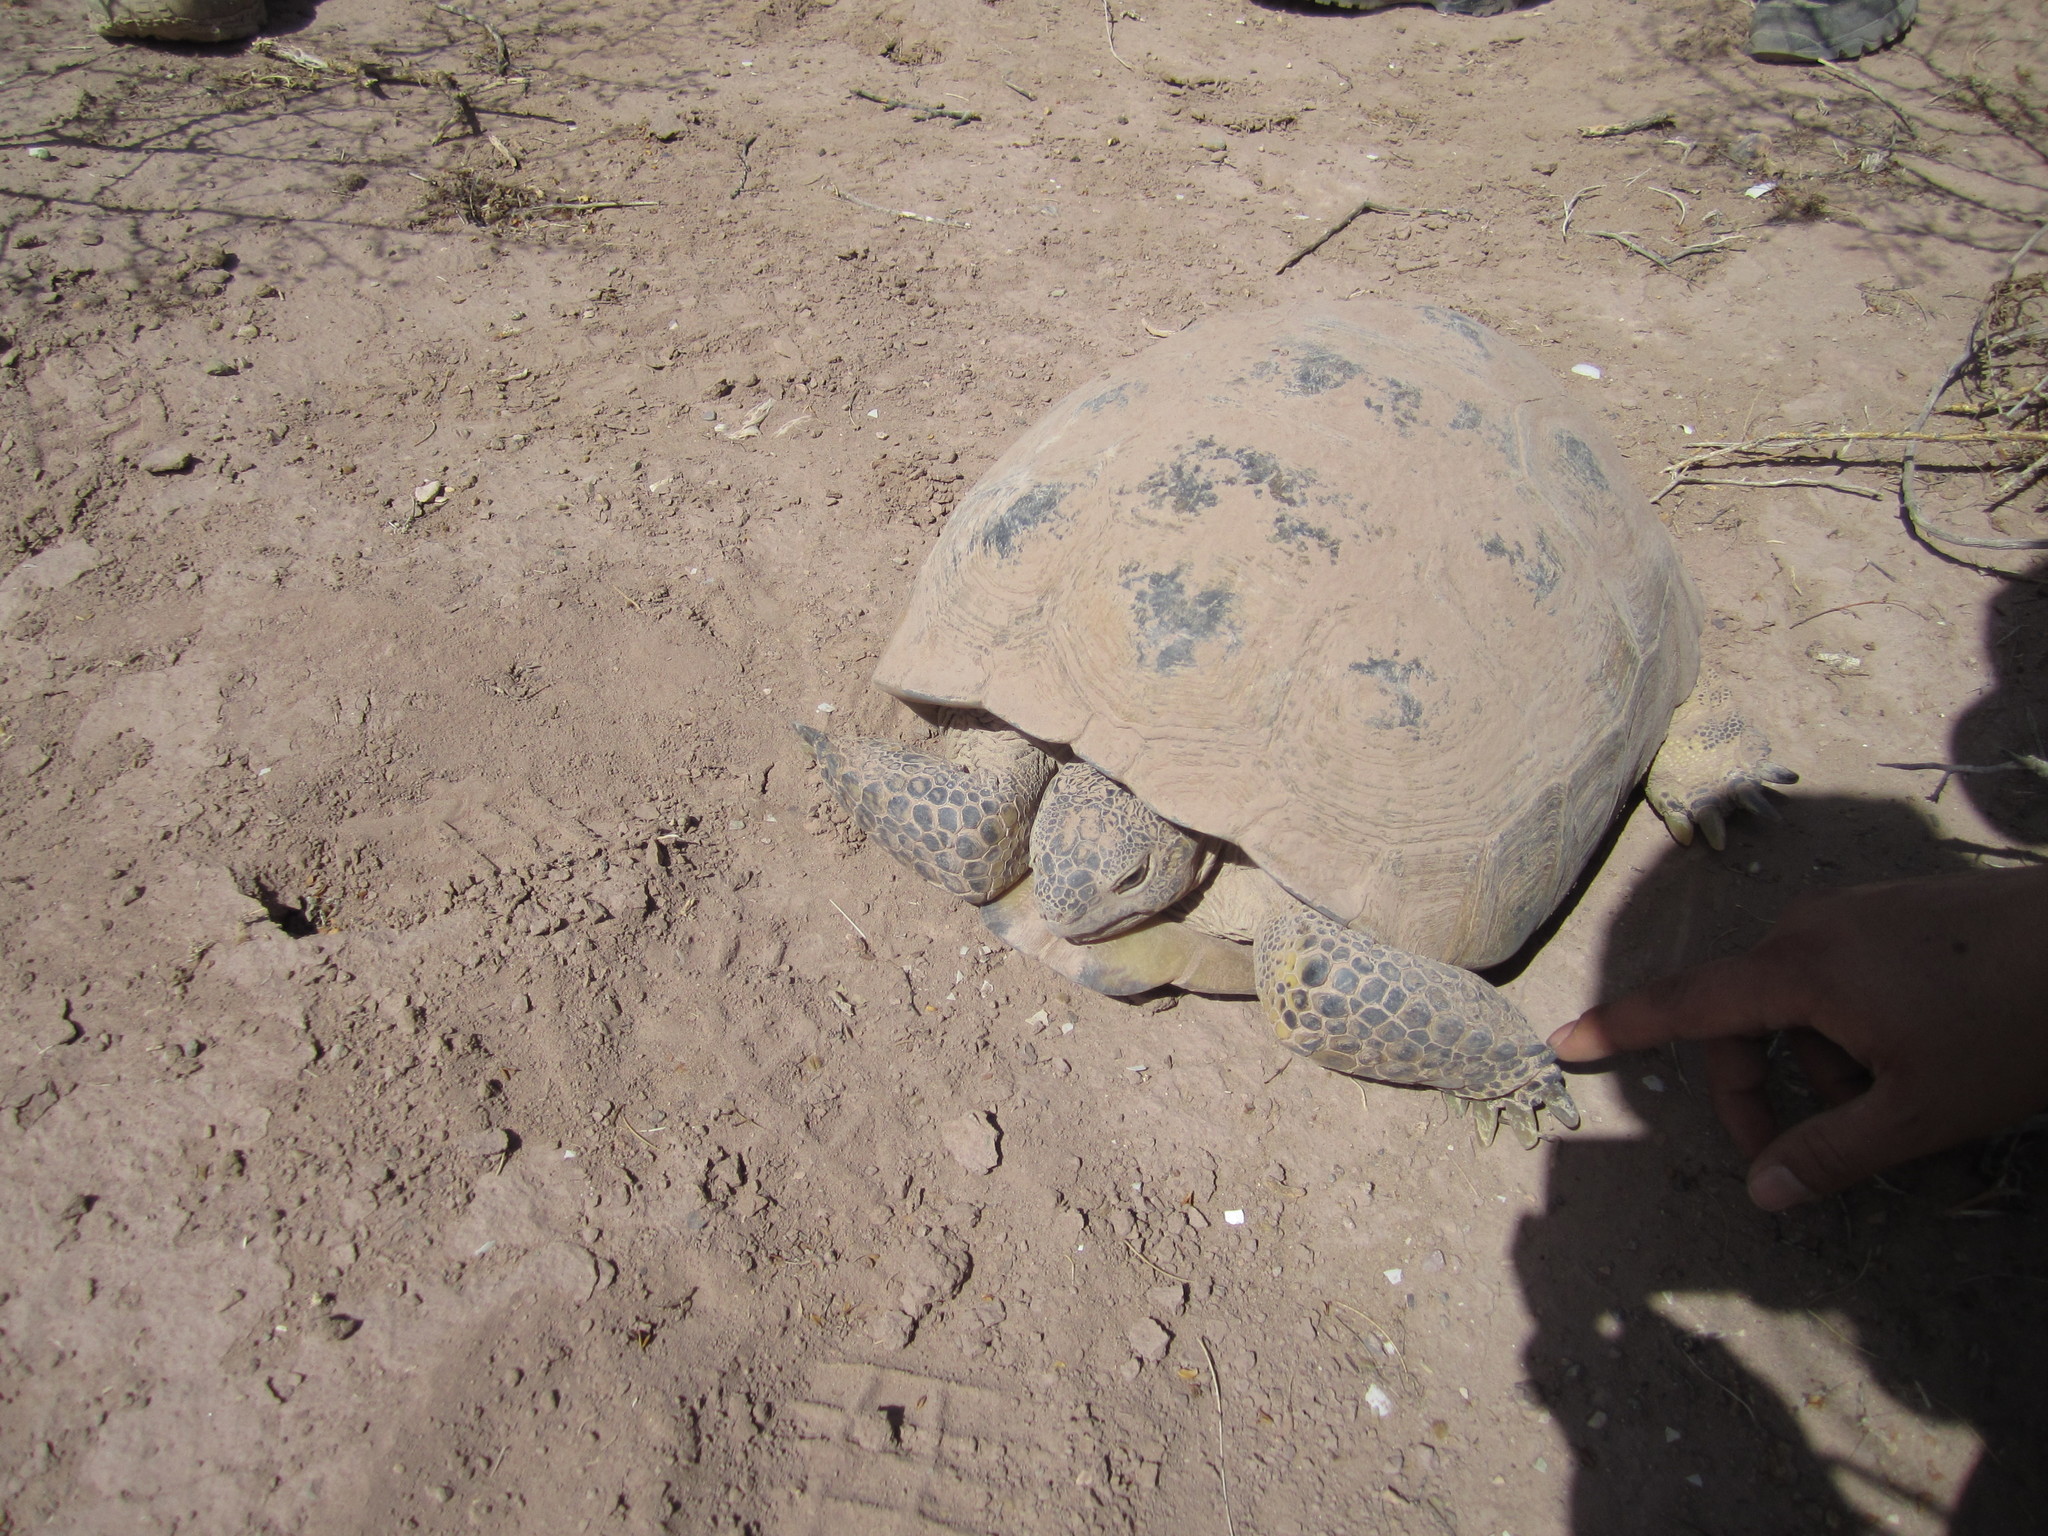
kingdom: Animalia
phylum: Chordata
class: Testudines
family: Testudinidae
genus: Gopherus
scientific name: Gopherus flavomarginatus
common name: Bolson tortoise
